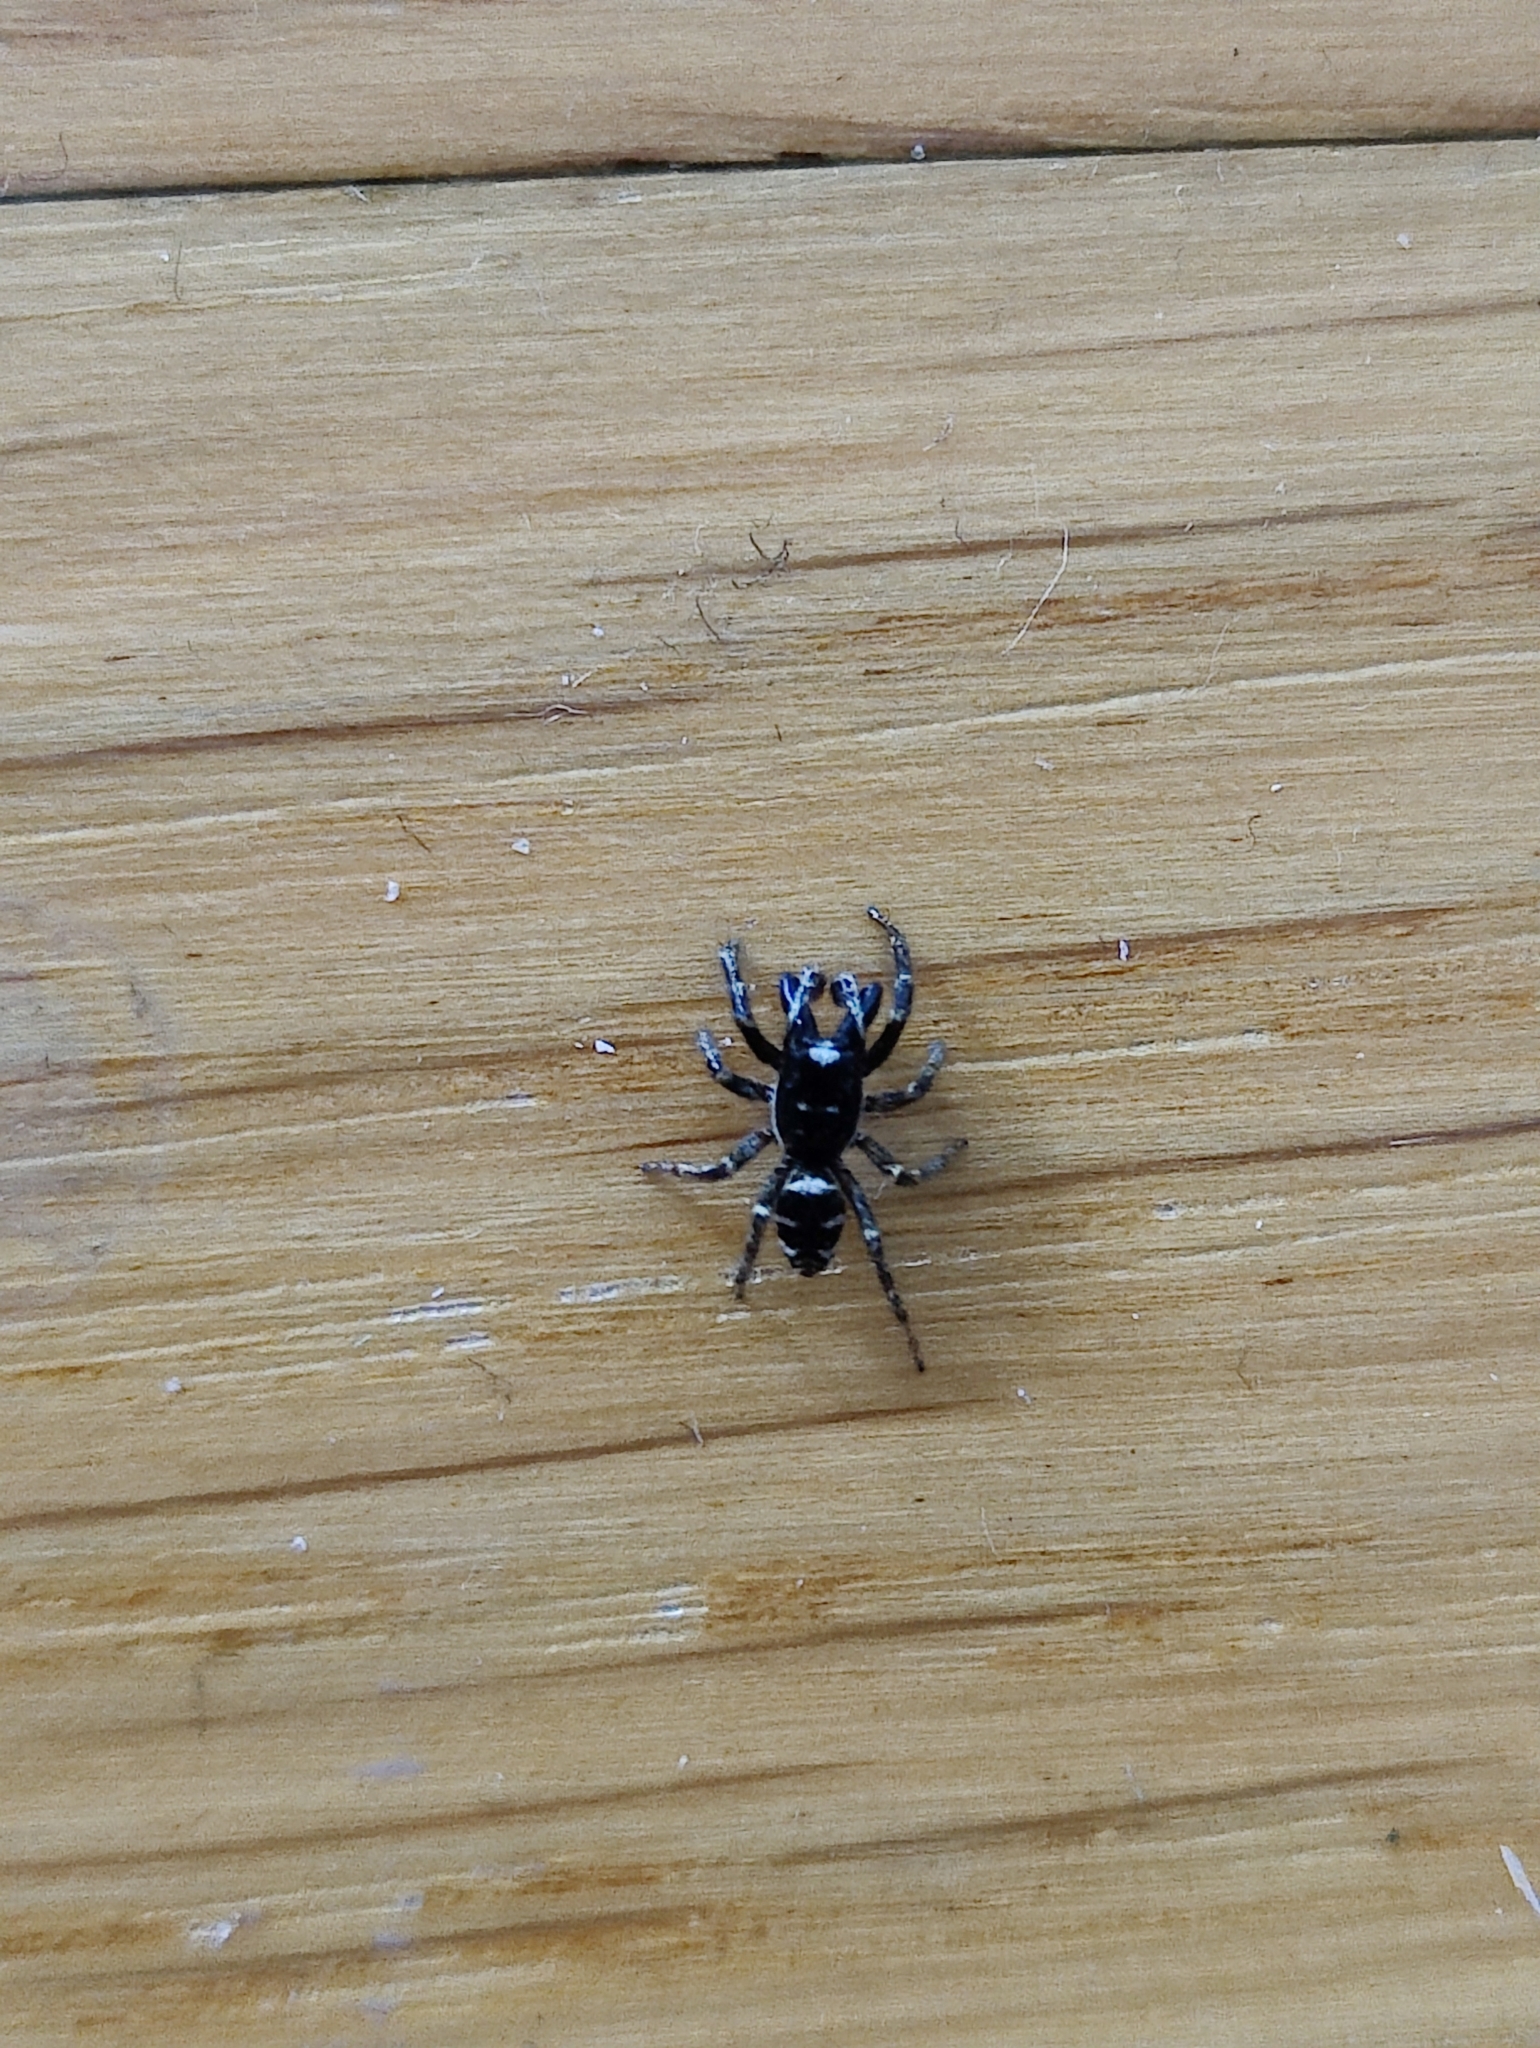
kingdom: Animalia
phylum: Arthropoda
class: Arachnida
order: Araneae
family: Salticidae
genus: Salticus
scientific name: Salticus scenicus
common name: Zebra jumper
